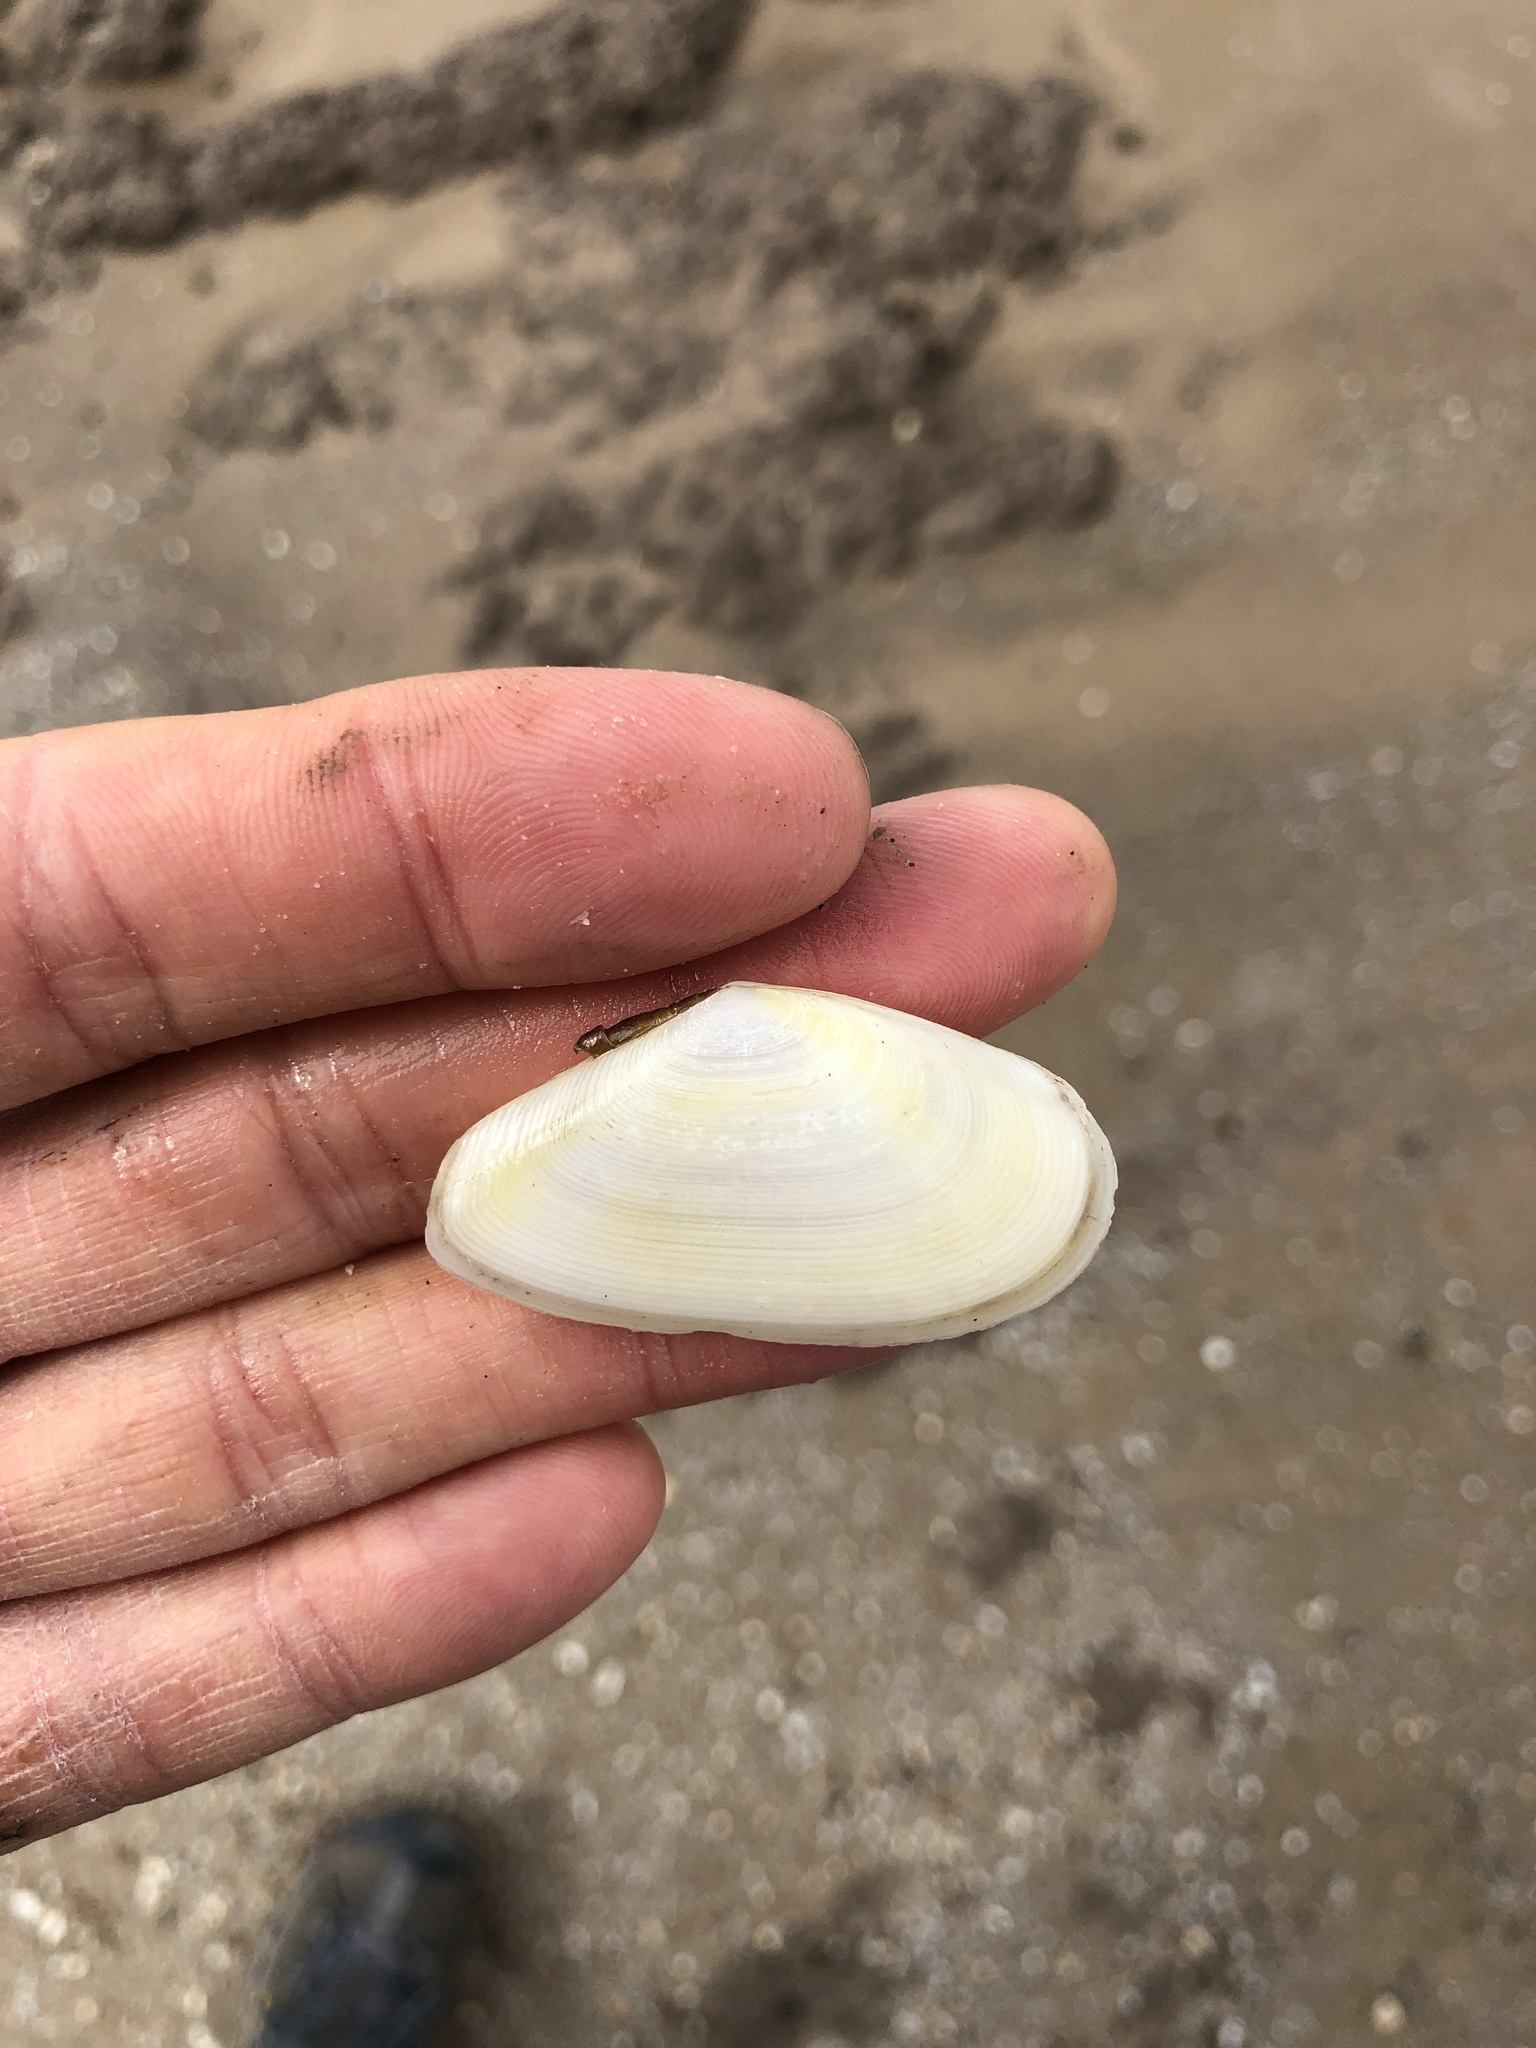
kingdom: Animalia
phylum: Mollusca
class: Bivalvia
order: Cardiida
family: Tellinidae
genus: Eurytellina
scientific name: Eurytellina alternata
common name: Alternate tellin
